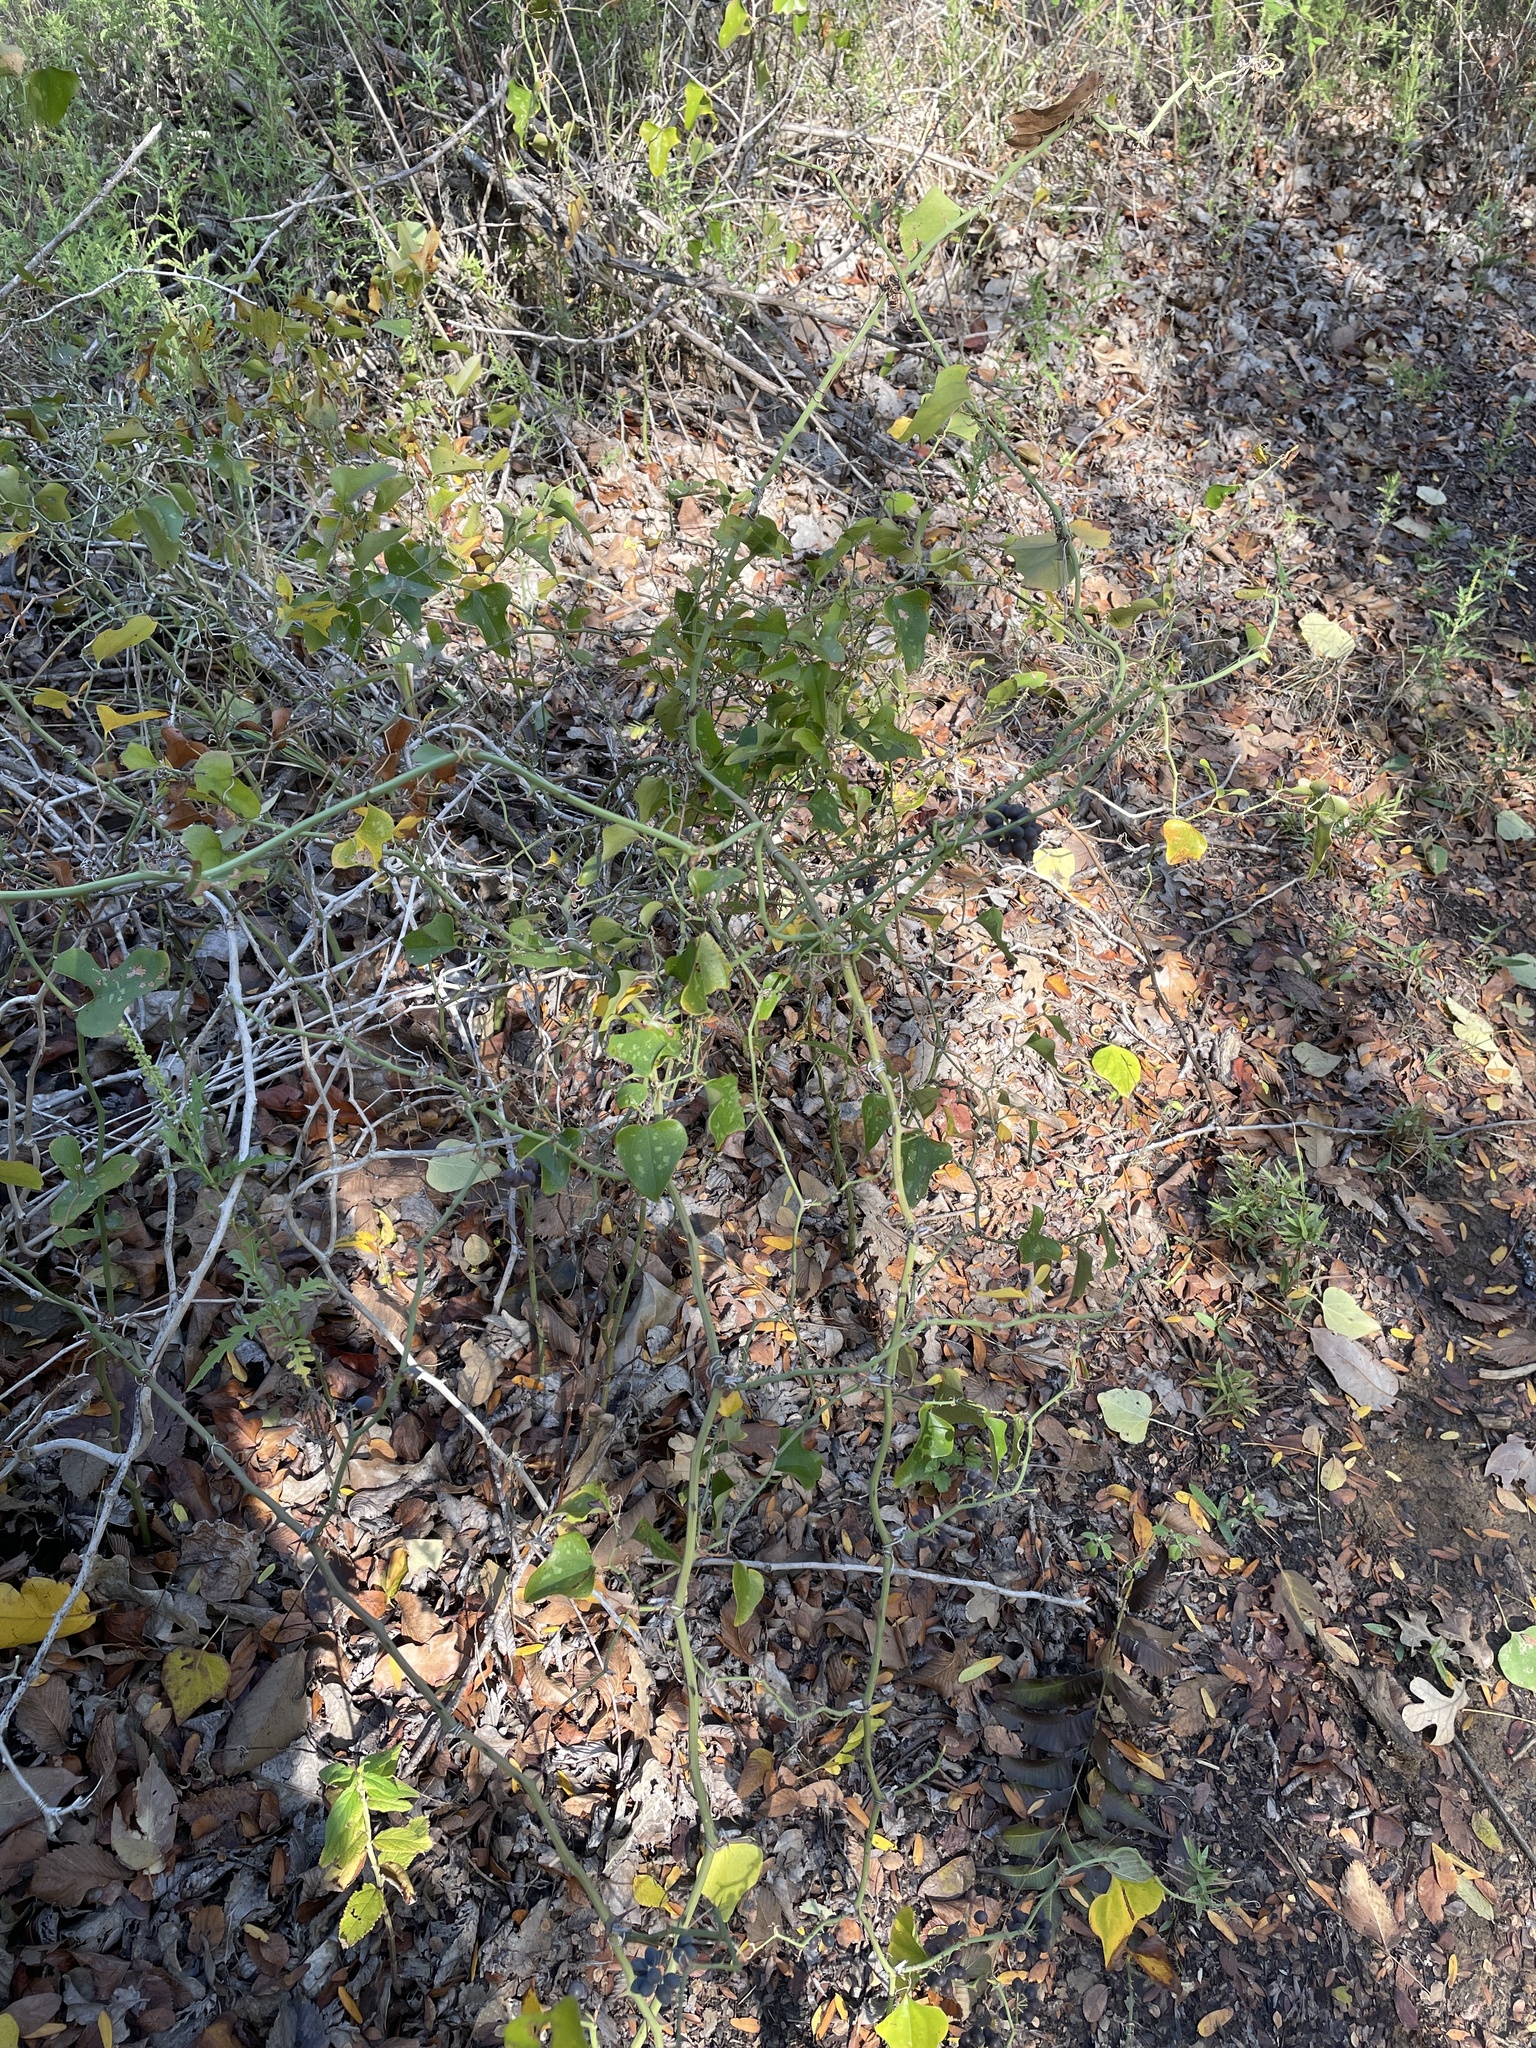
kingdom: Plantae
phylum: Tracheophyta
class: Liliopsida
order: Liliales
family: Smilacaceae
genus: Smilax
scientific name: Smilax bona-nox
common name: Catbrier
